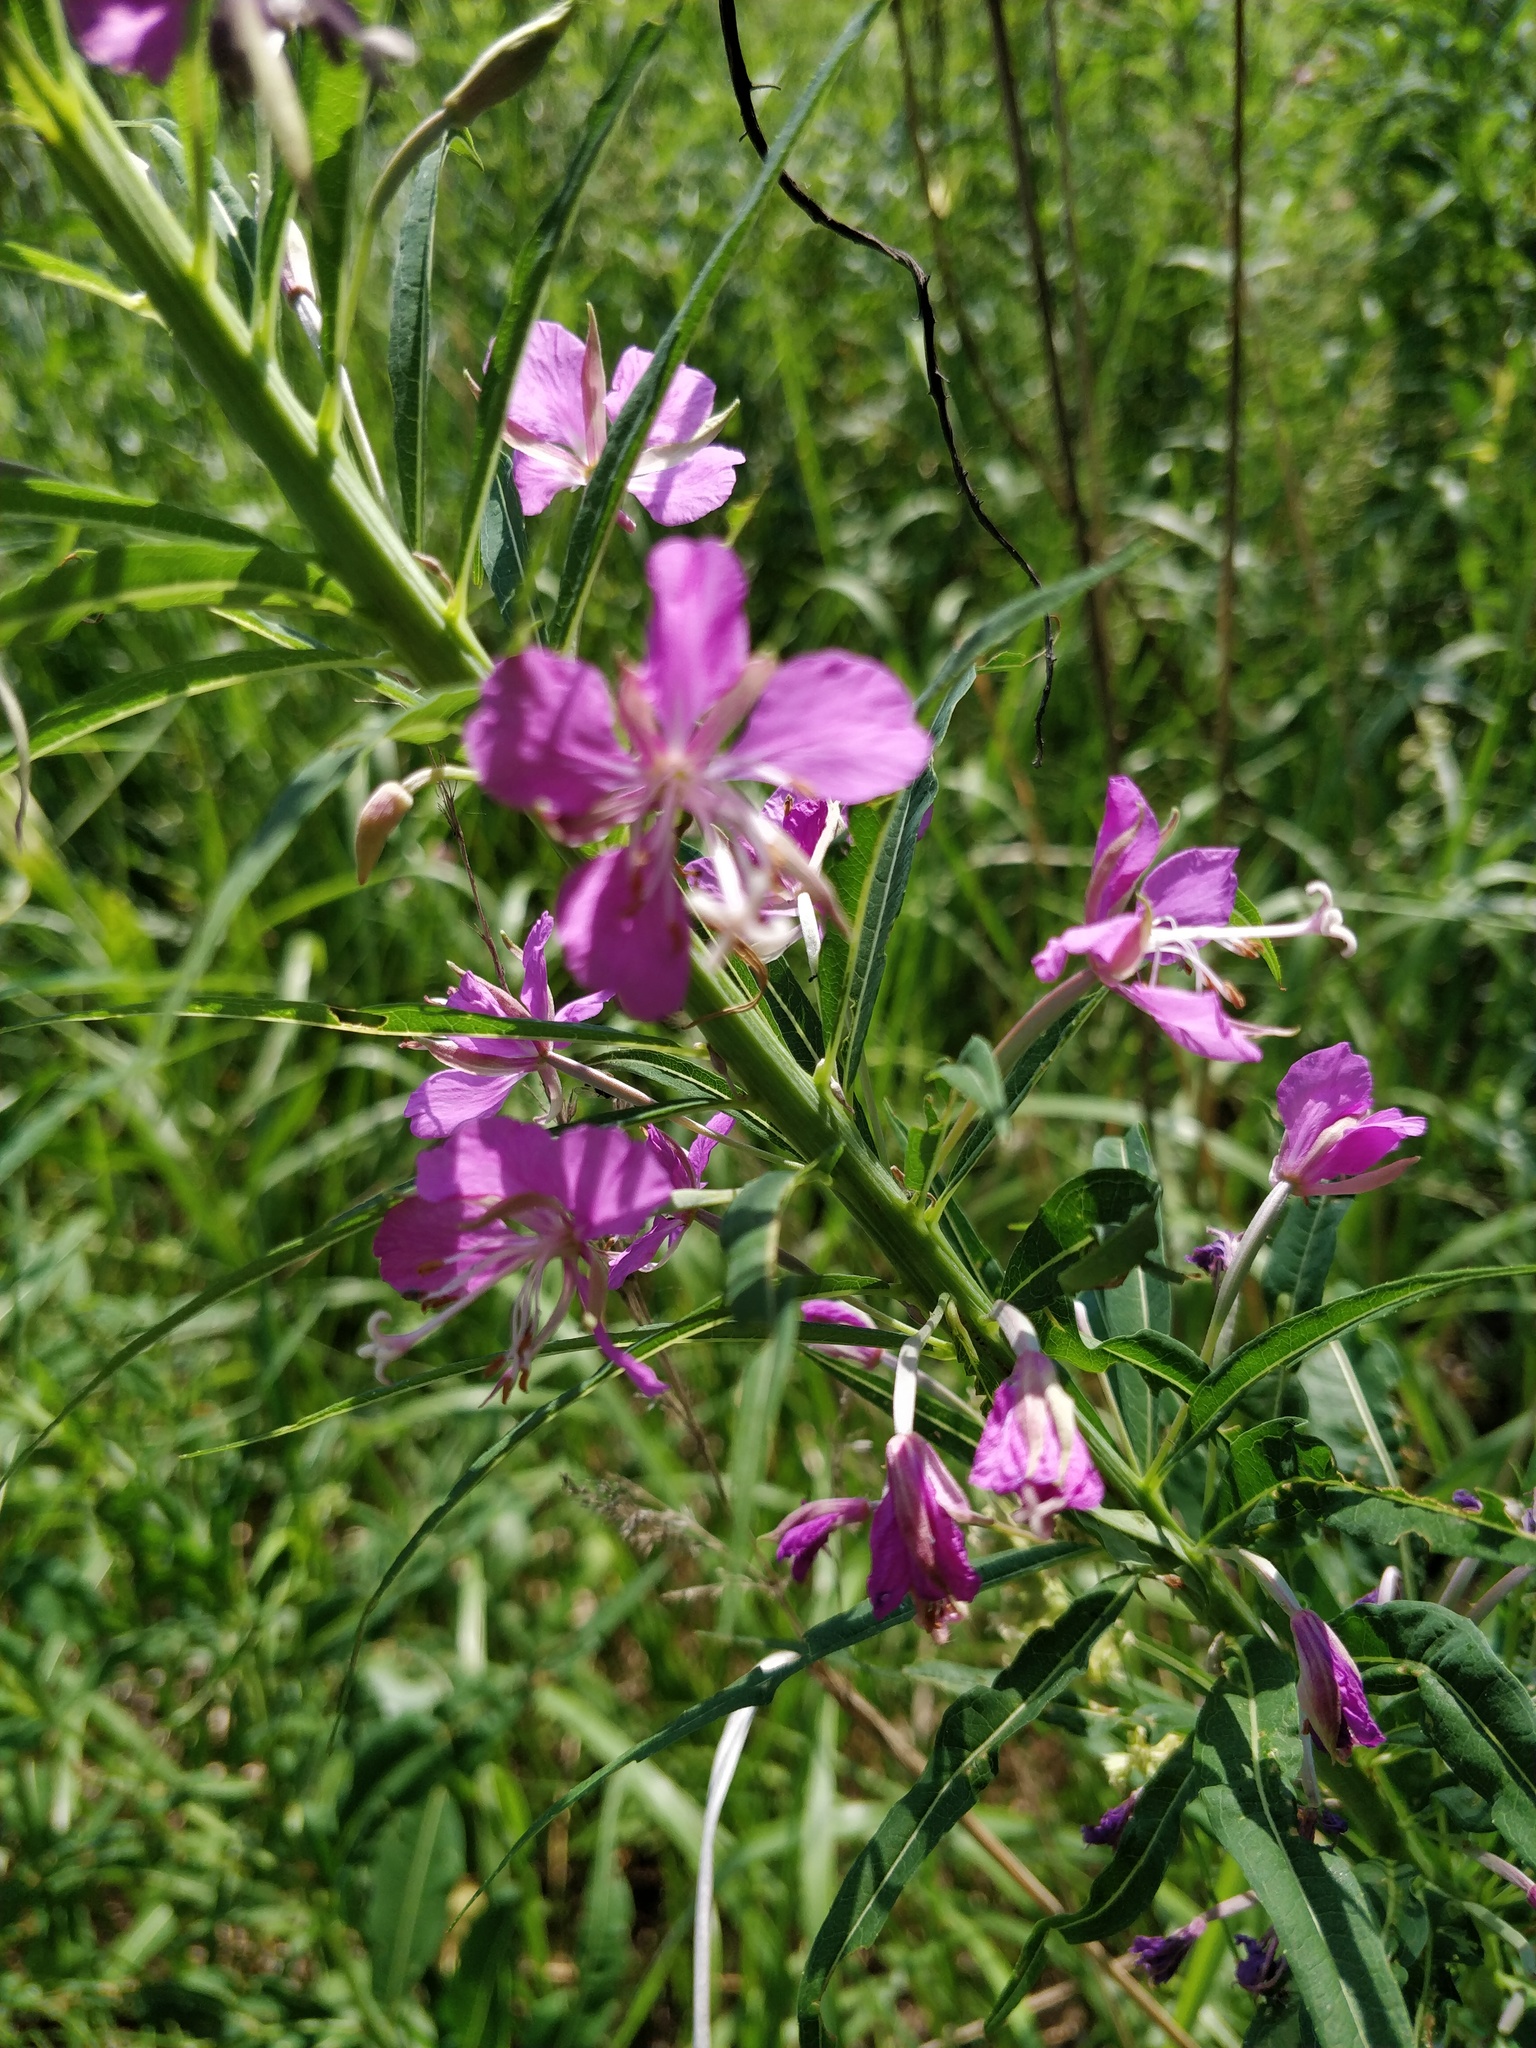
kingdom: Plantae
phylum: Tracheophyta
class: Magnoliopsida
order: Myrtales
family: Onagraceae
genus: Chamaenerion
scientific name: Chamaenerion angustifolium
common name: Fireweed
